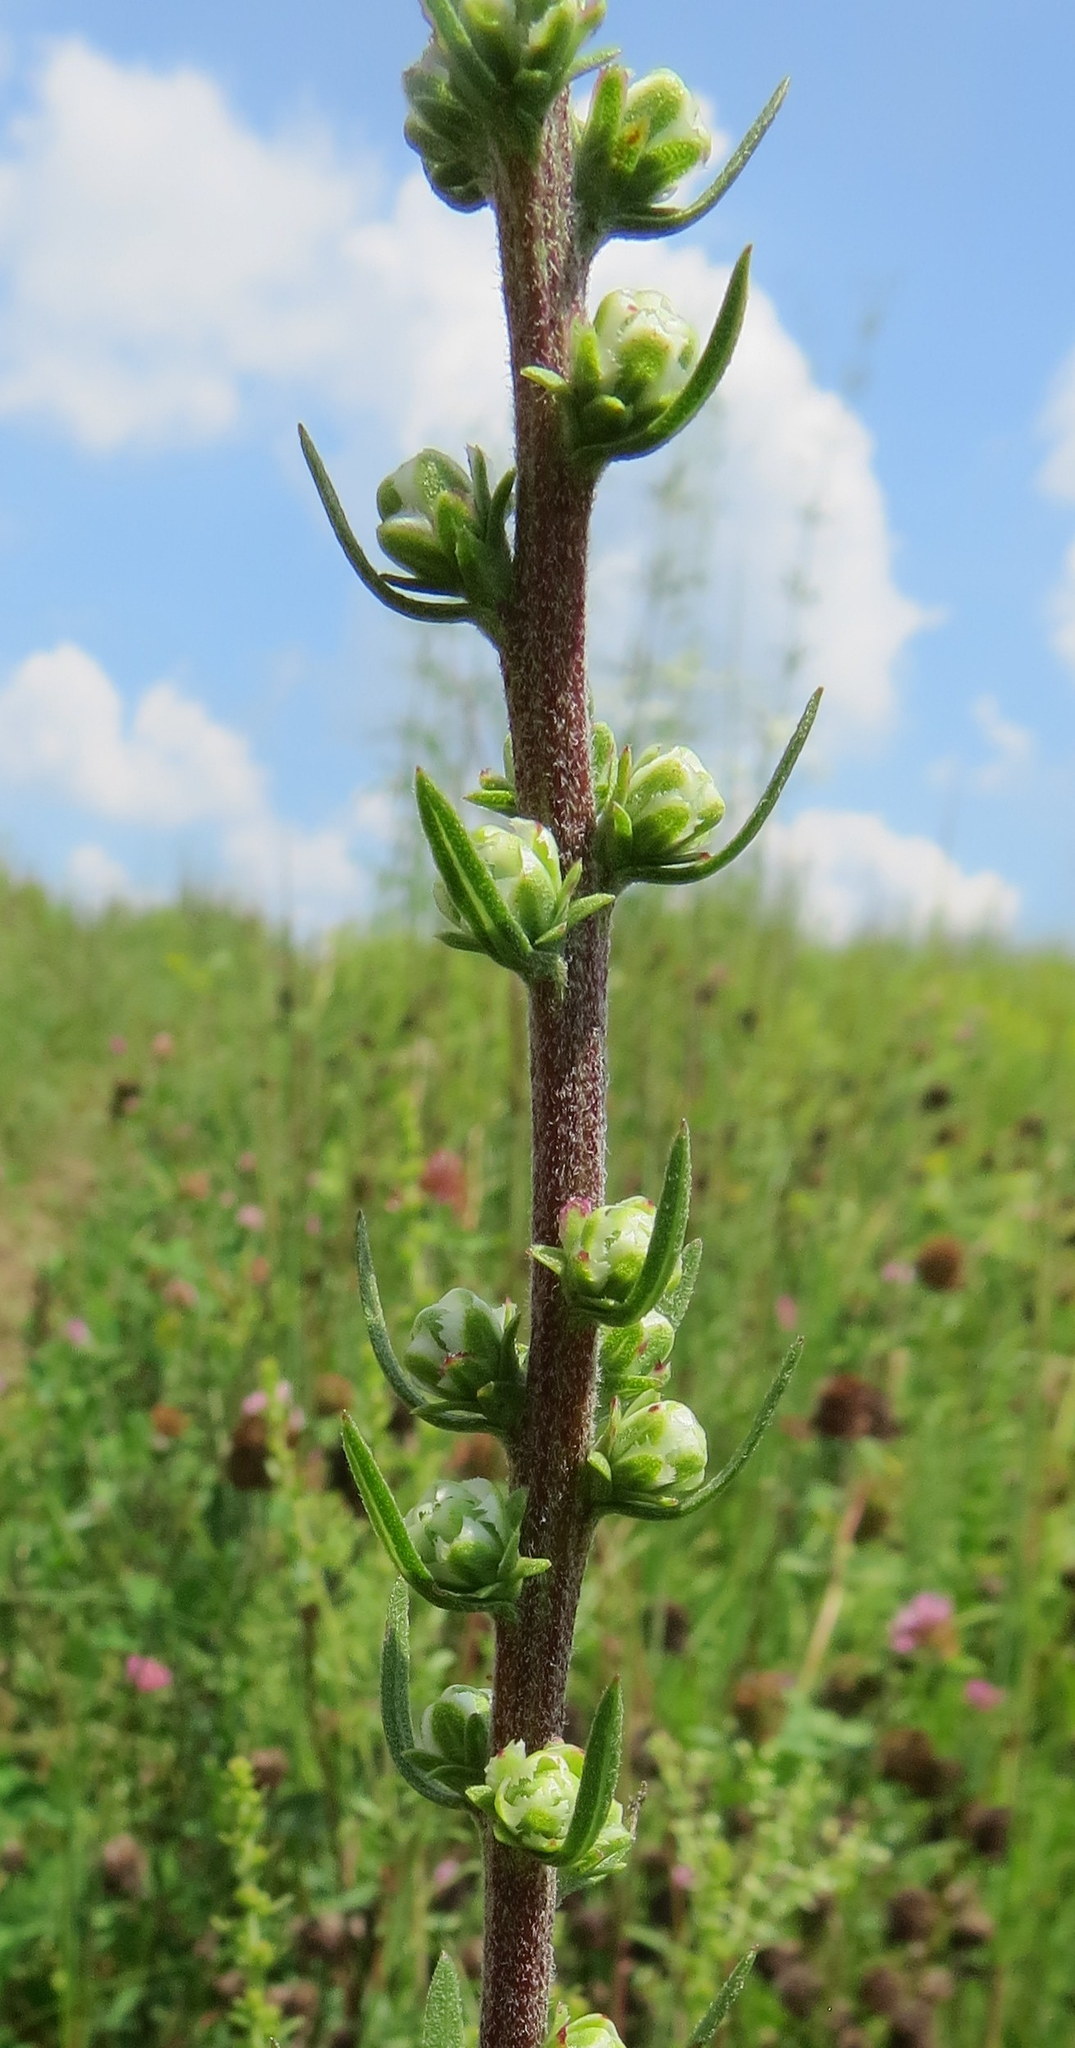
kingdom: Plantae
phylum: Tracheophyta
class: Magnoliopsida
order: Asterales
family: Asteraceae
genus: Liatris
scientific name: Liatris aspera
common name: Lacerate blazing-star
